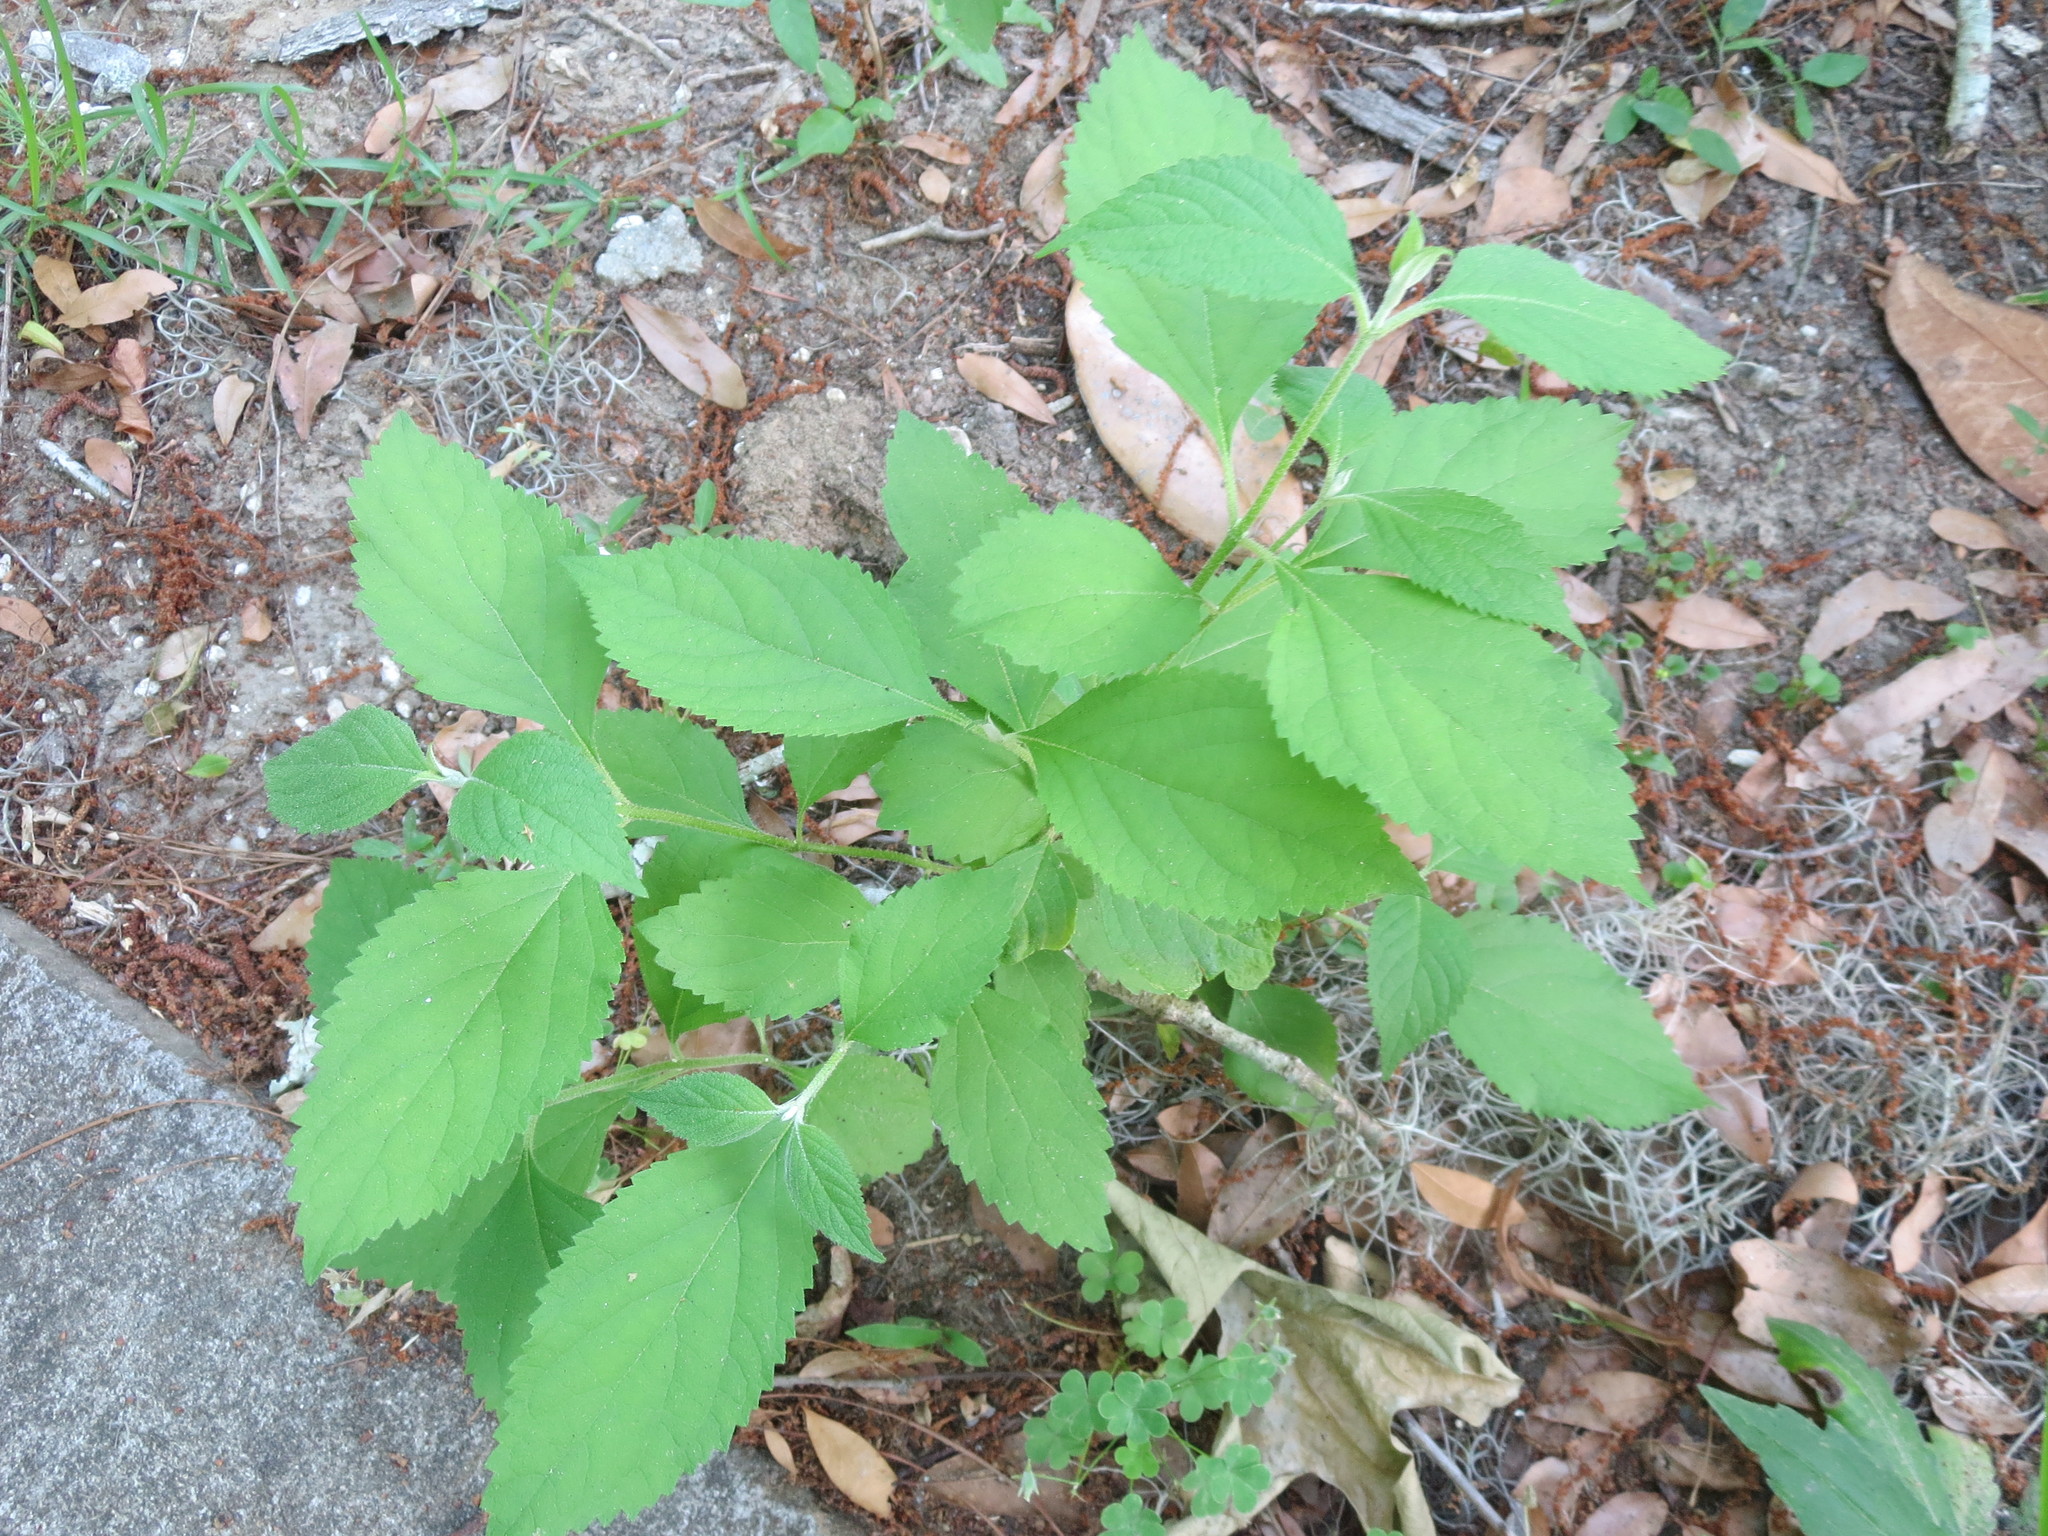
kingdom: Plantae
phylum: Tracheophyta
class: Magnoliopsida
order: Lamiales
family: Lamiaceae
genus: Callicarpa
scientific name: Callicarpa americana
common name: American beautyberry
